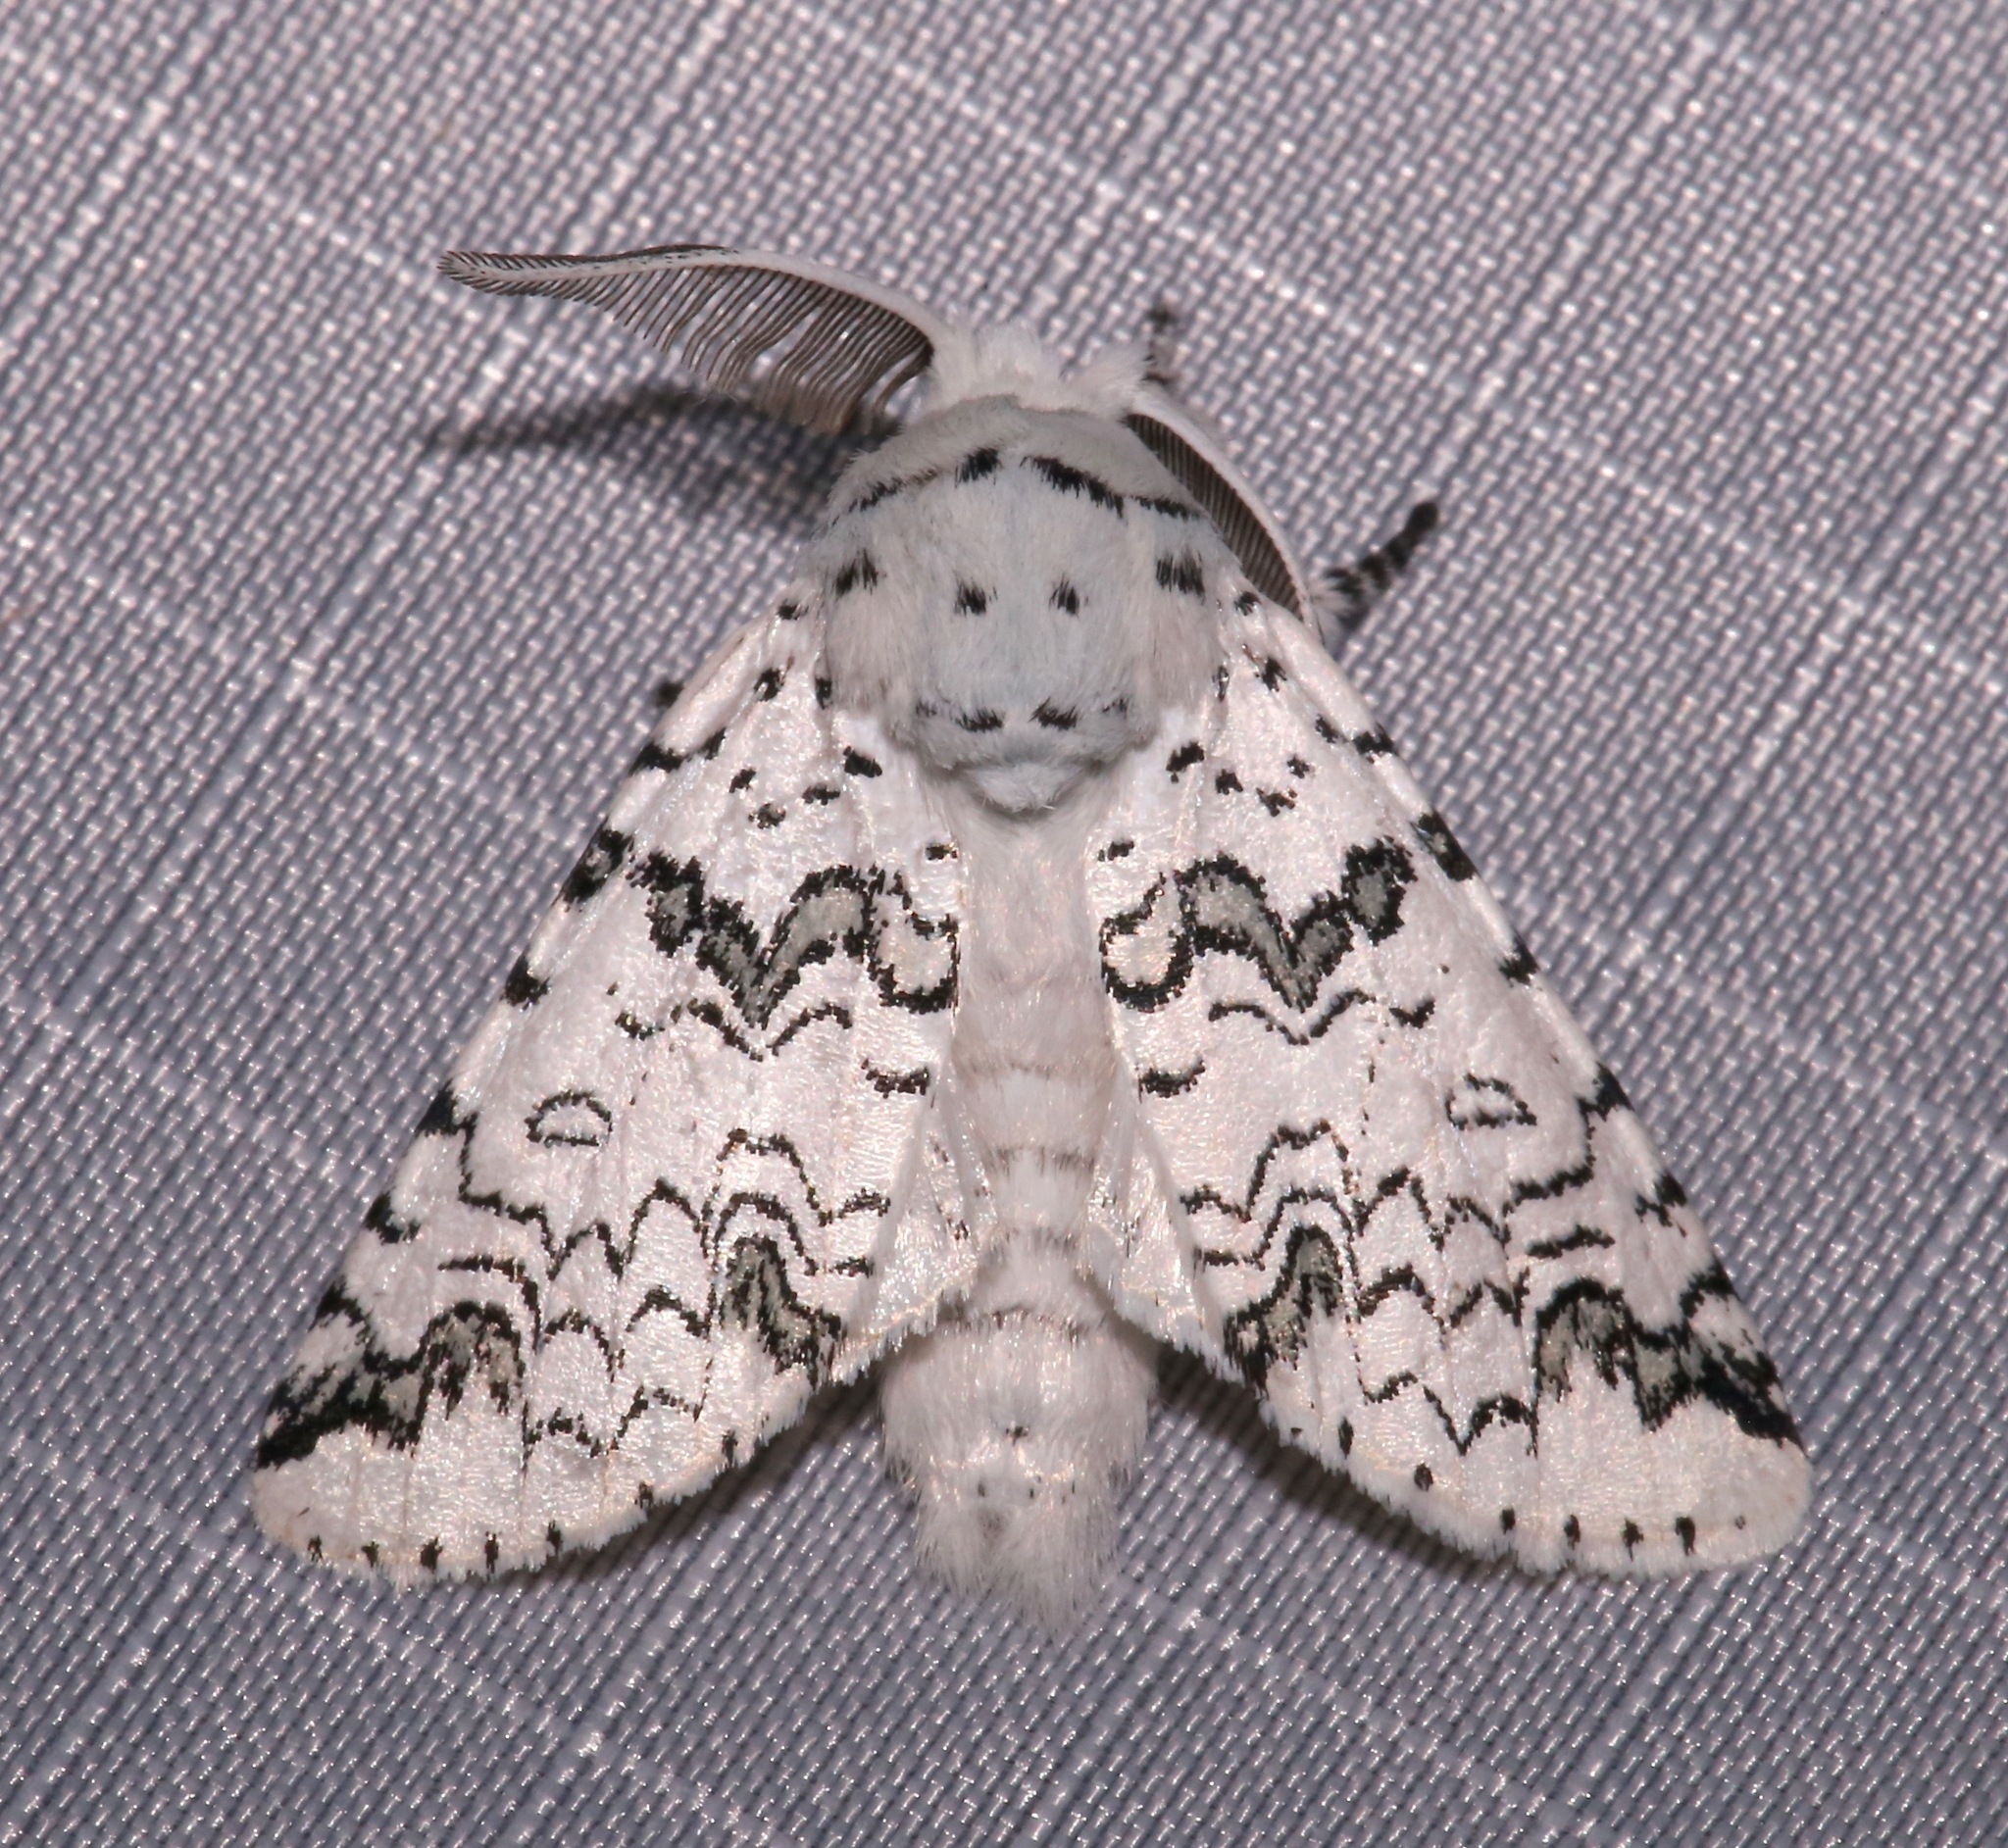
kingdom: Animalia
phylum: Arthropoda
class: Insecta
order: Lepidoptera
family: Notodontidae
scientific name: Notodontidae
